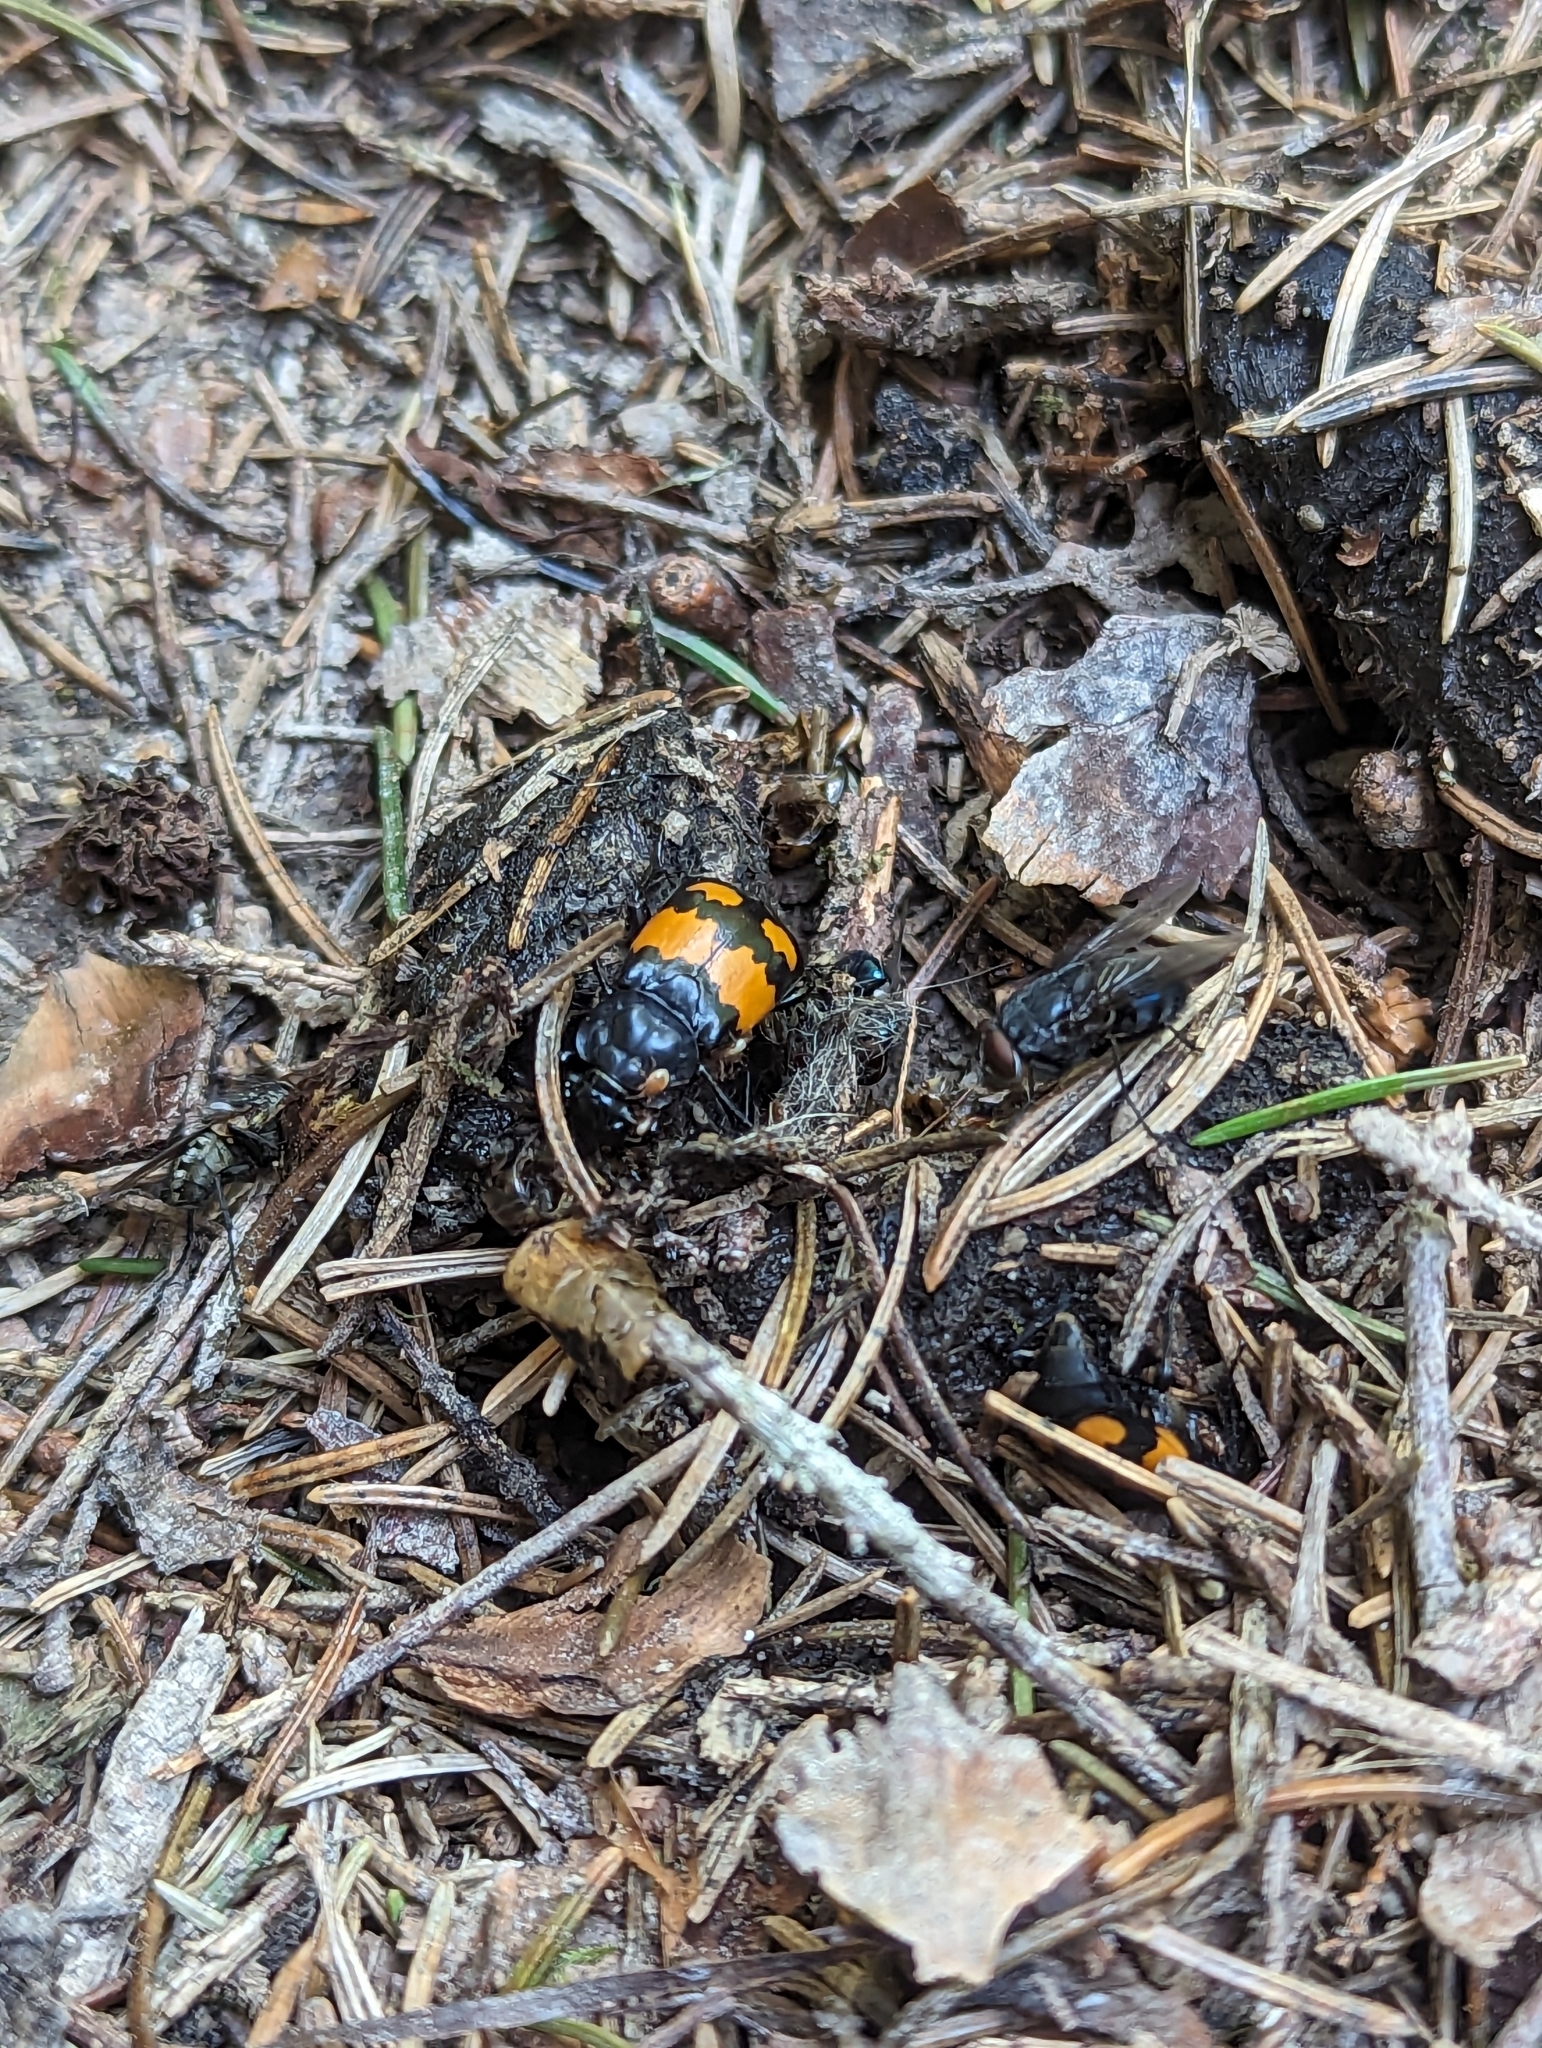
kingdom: Animalia
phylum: Arthropoda
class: Insecta
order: Coleoptera
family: Staphylinidae
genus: Nicrophorus
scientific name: Nicrophorus vespilloides
